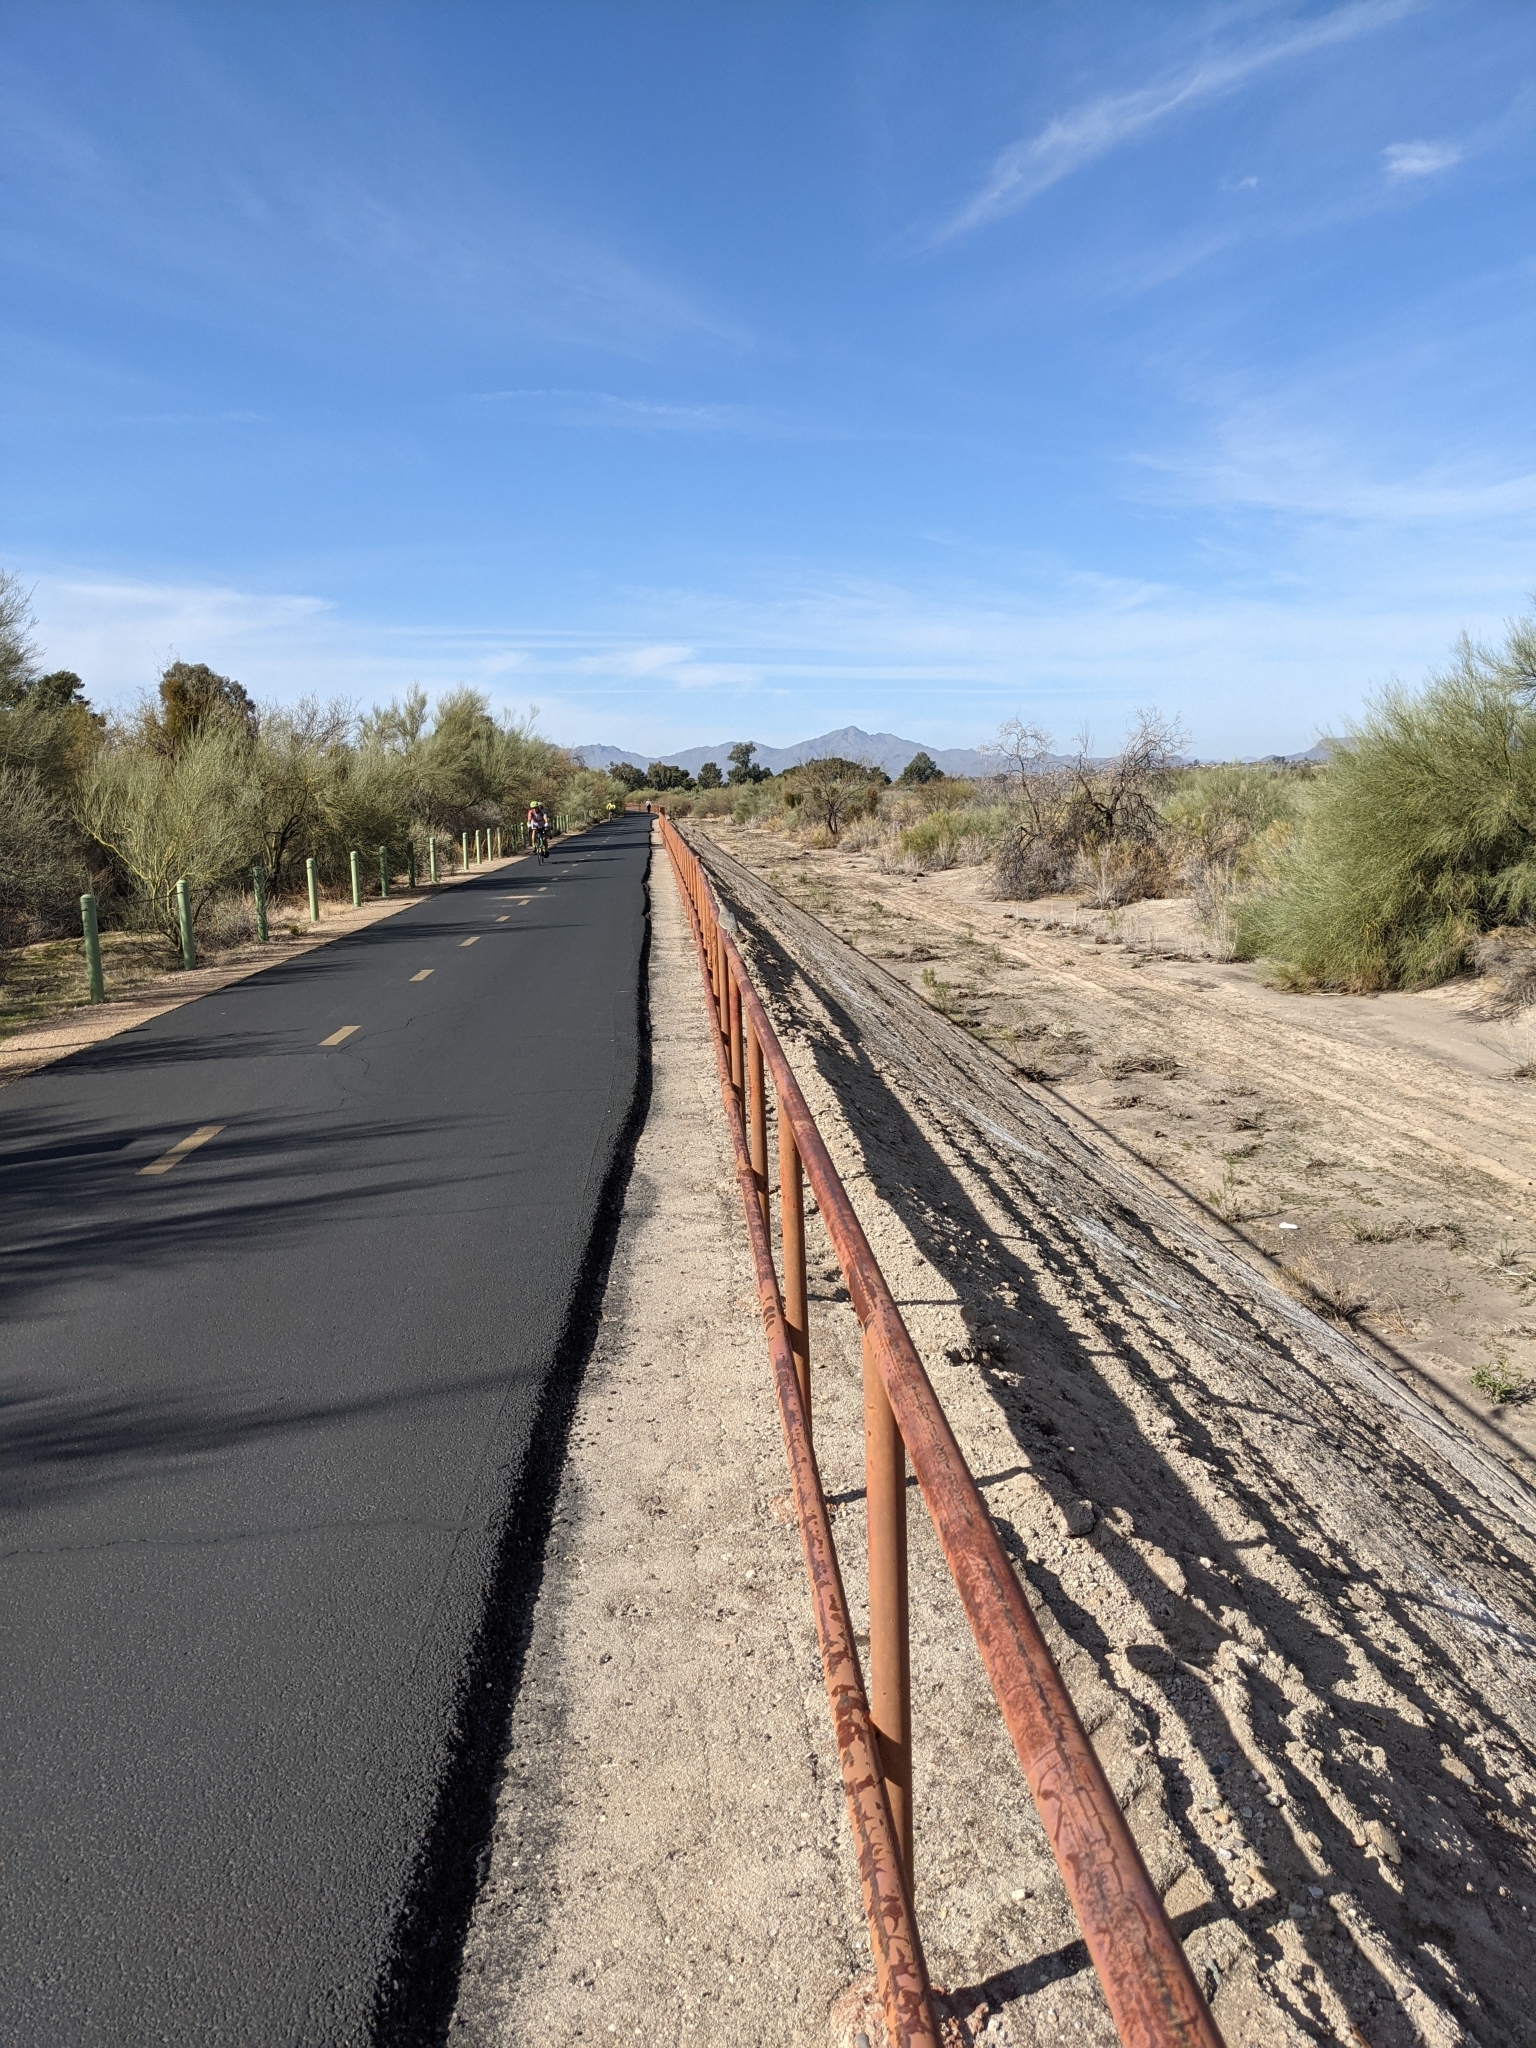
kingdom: Animalia
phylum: Chordata
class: Aves
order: Columbiformes
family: Columbidae
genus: Zenaida
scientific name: Zenaida macroura
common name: Mourning dove
